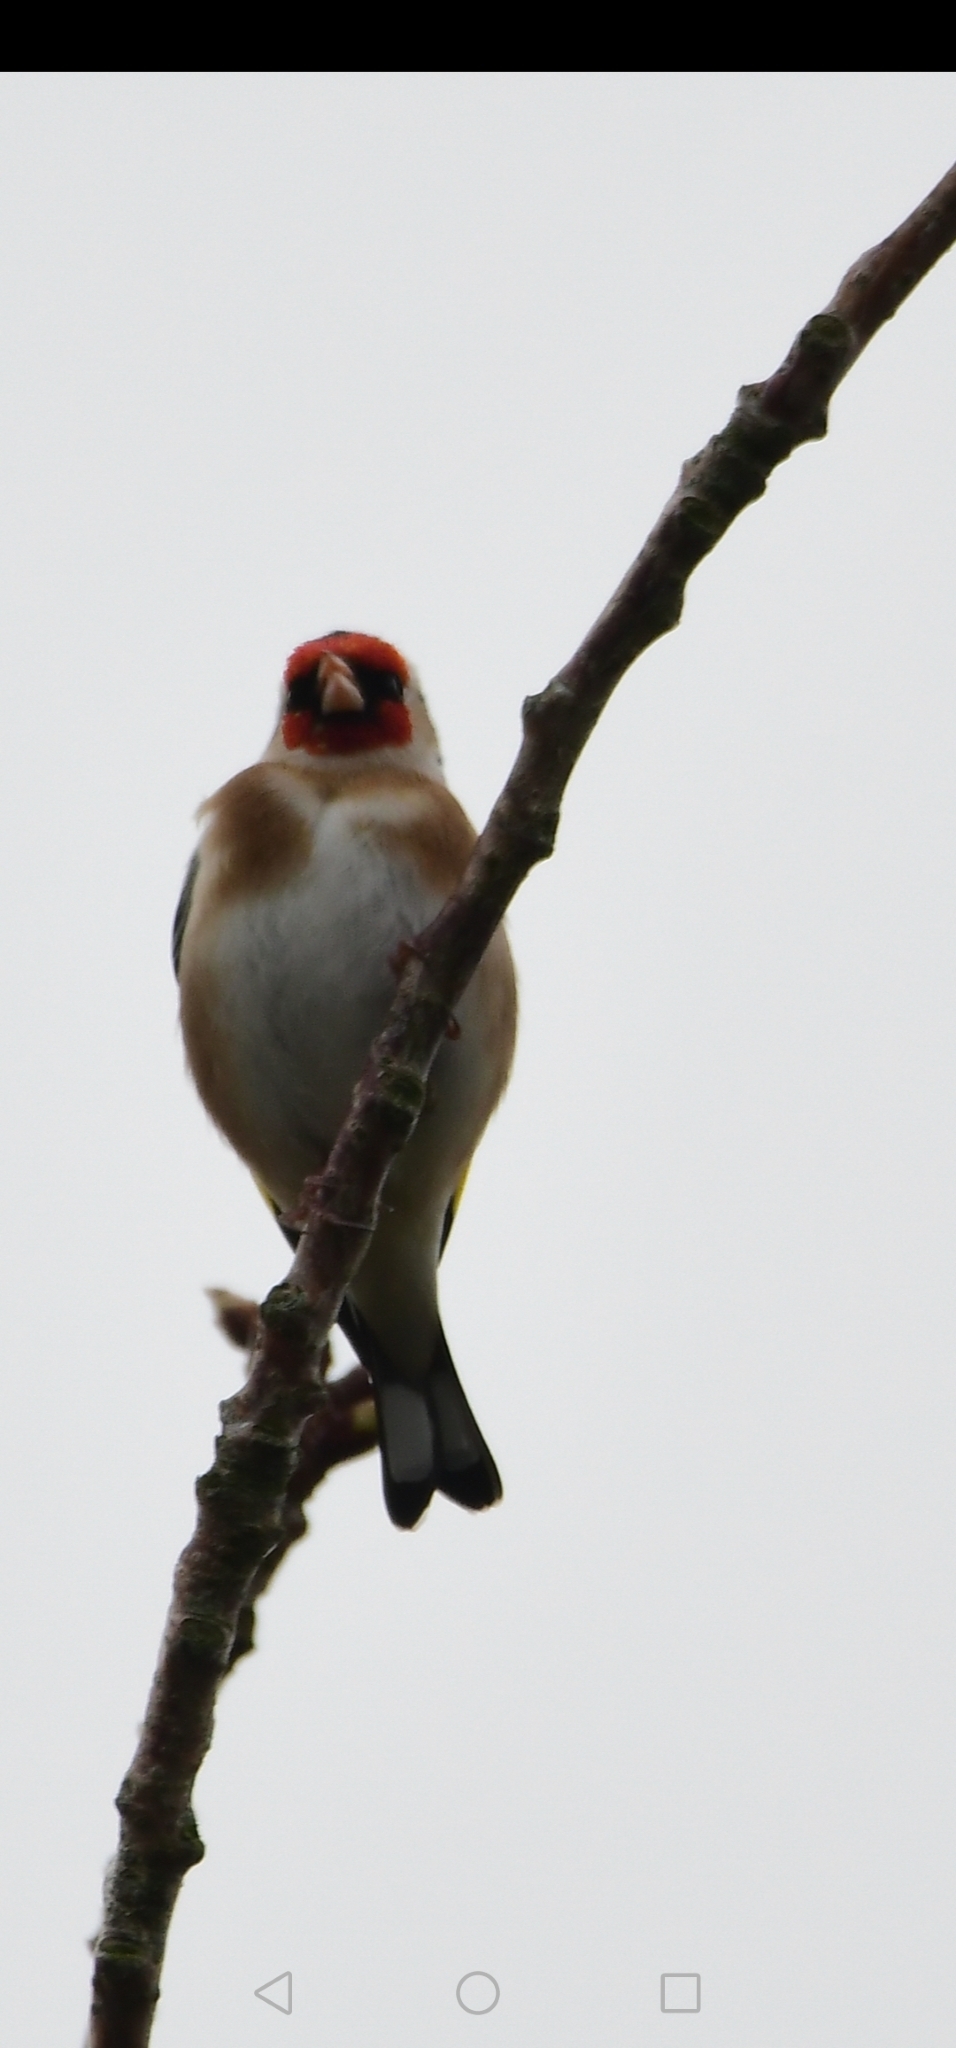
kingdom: Animalia
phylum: Chordata
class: Aves
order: Passeriformes
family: Fringillidae
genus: Carduelis
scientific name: Carduelis carduelis
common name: European goldfinch
